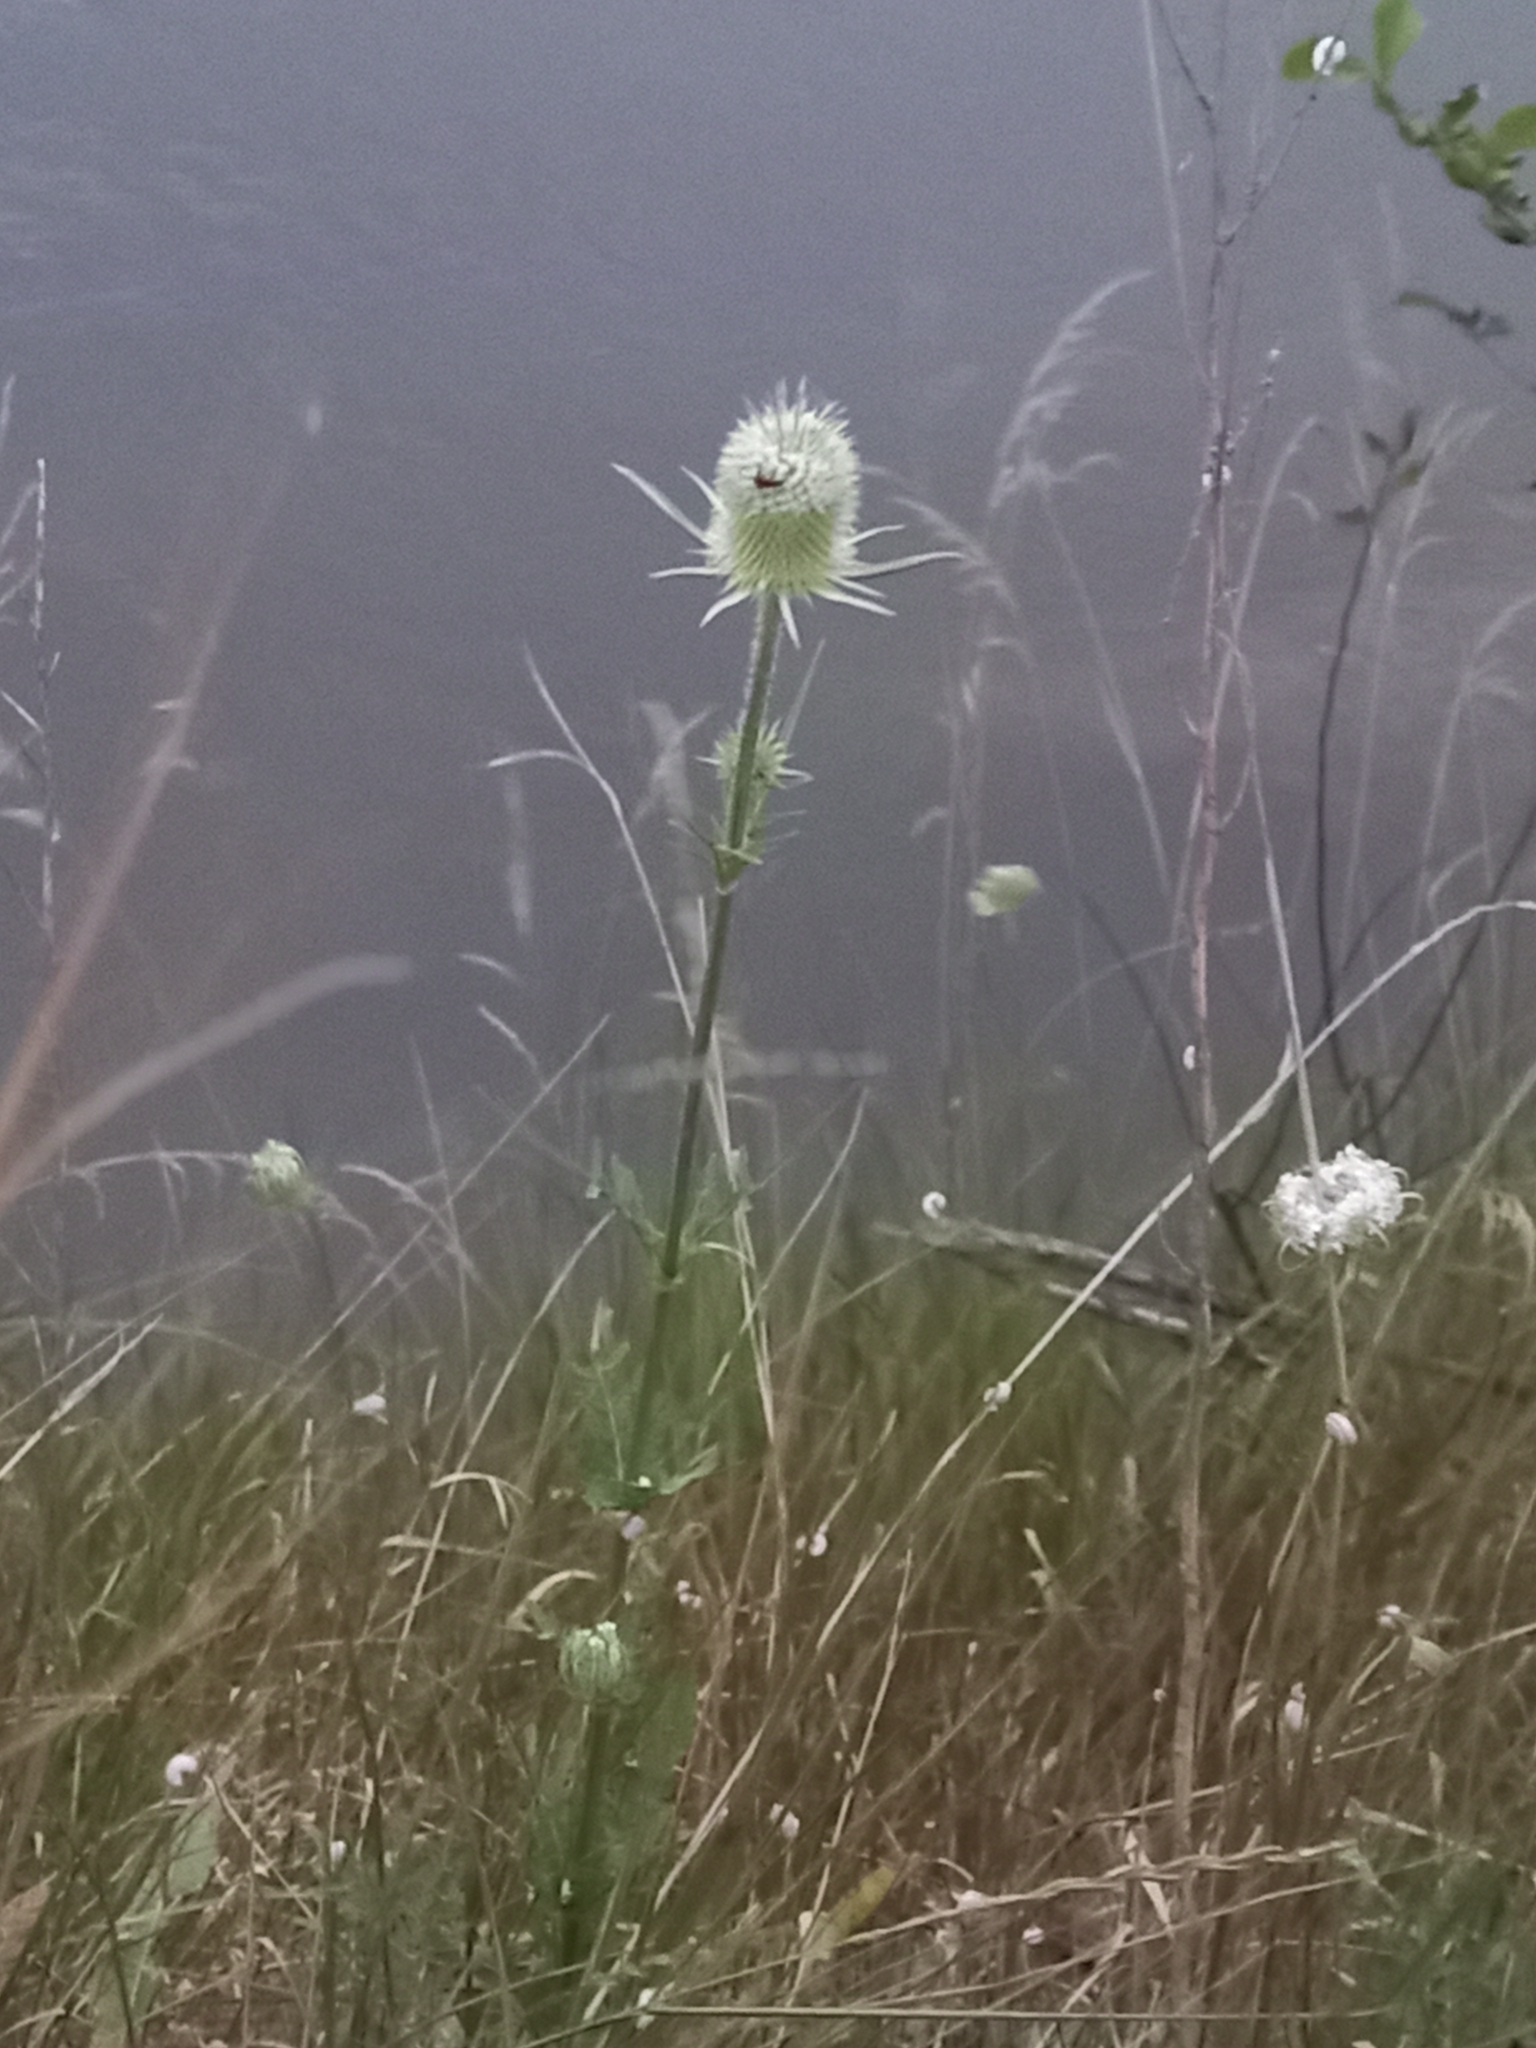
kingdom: Plantae
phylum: Tracheophyta
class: Magnoliopsida
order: Dipsacales
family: Caprifoliaceae
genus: Dipsacus
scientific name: Dipsacus laciniatus
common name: Cut-leaved teasel
